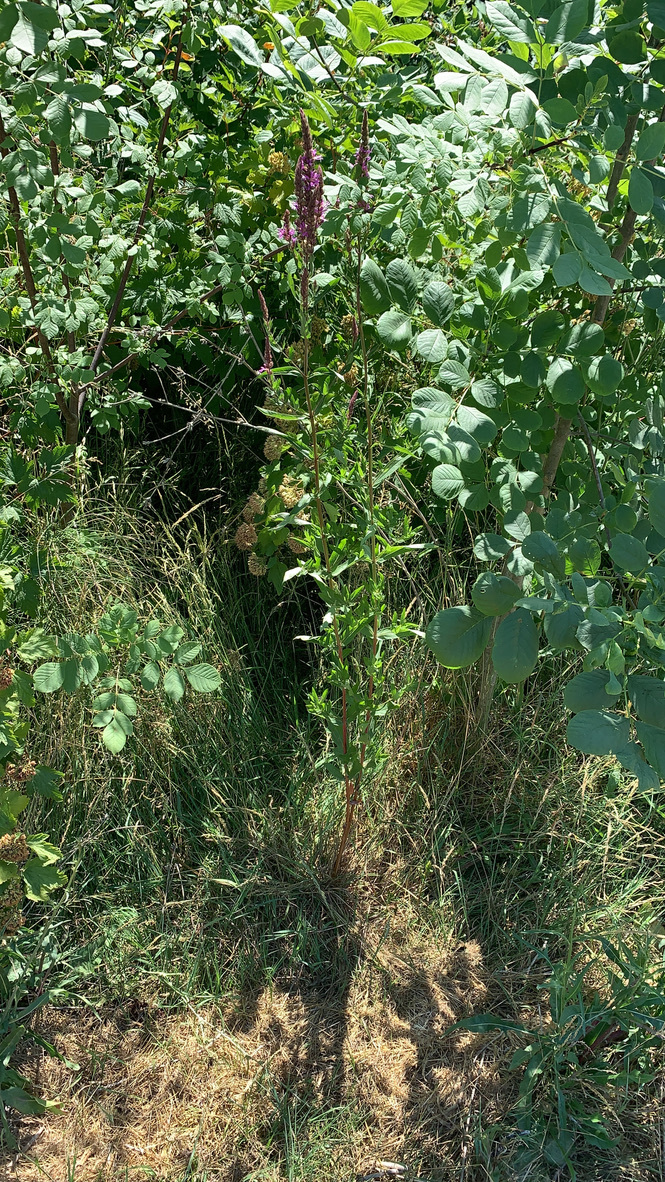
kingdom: Plantae
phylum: Tracheophyta
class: Magnoliopsida
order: Myrtales
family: Lythraceae
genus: Lythrum
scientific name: Lythrum salicaria
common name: Purple loosestrife
